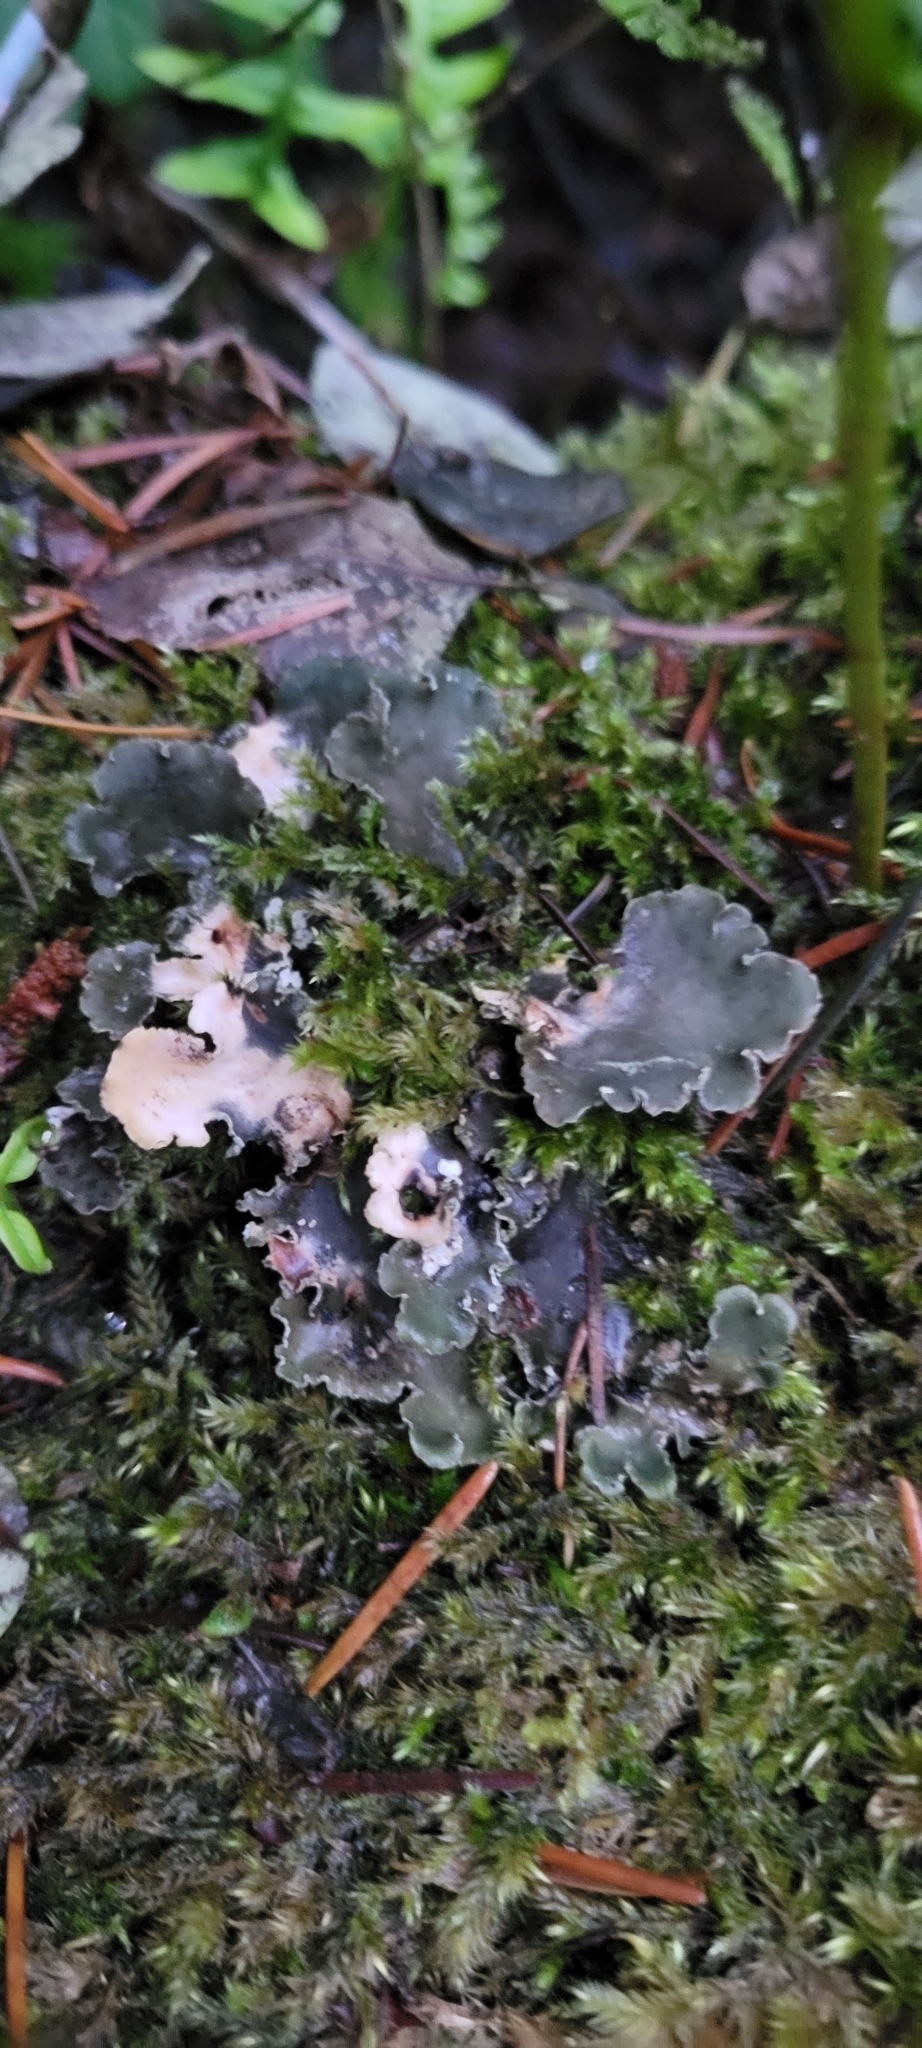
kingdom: Fungi
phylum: Ascomycota
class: Lecanoromycetes
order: Peltigerales
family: Peltigeraceae
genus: Peltigera
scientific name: Peltigera collina
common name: Gritty tree pelt lichen
